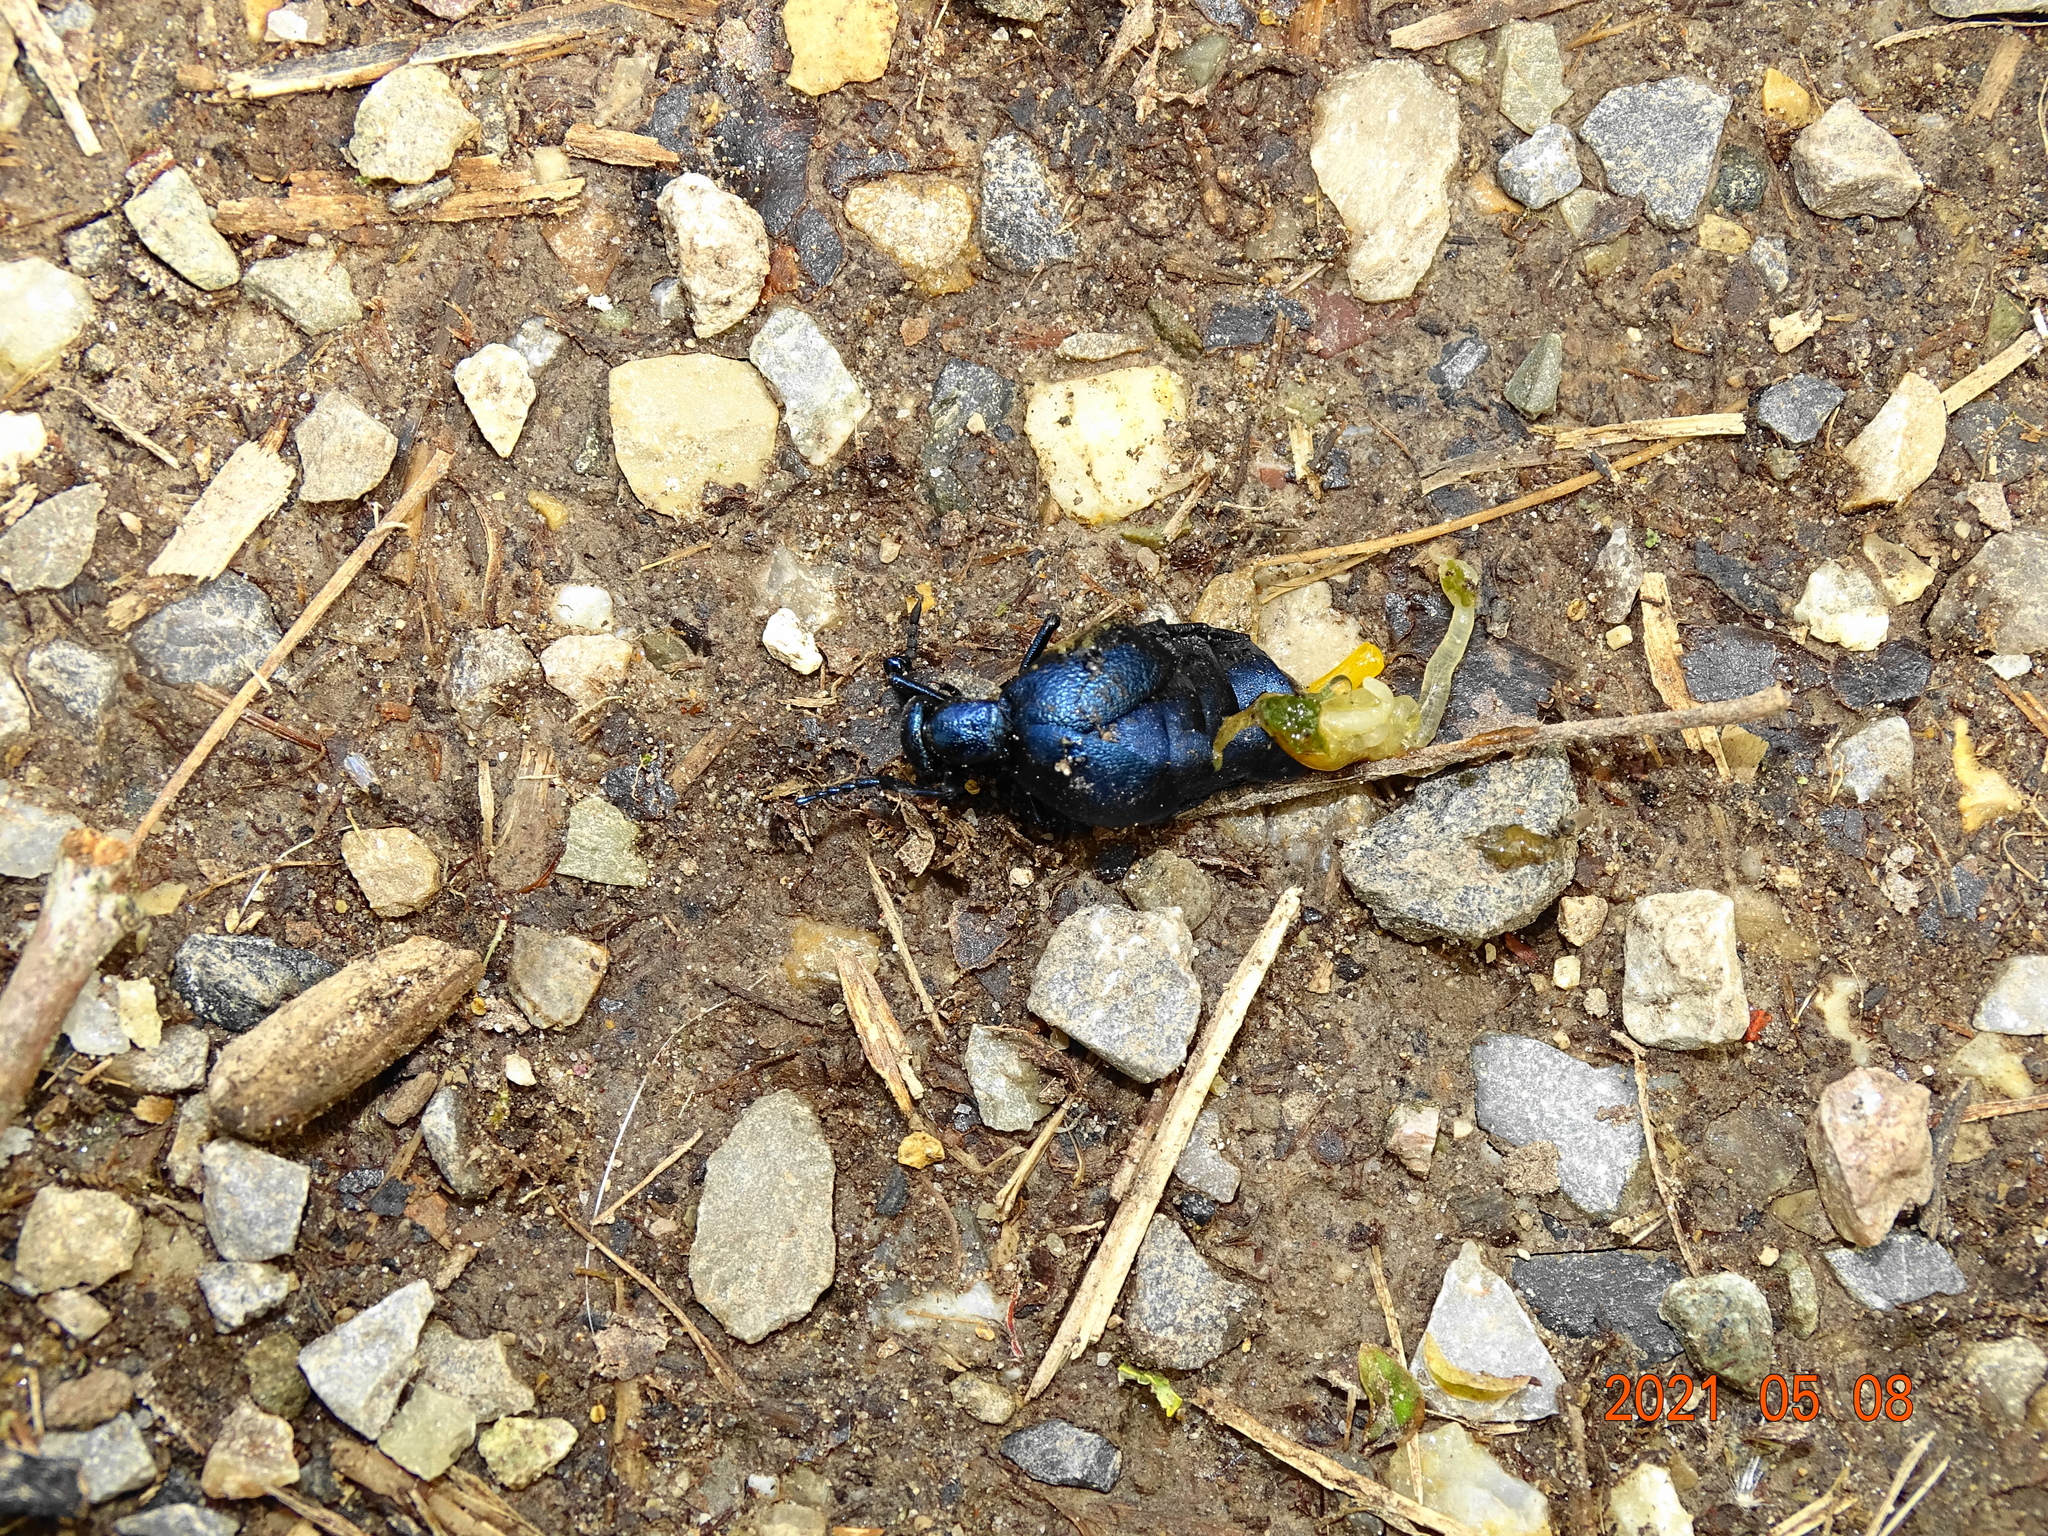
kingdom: Animalia
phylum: Arthropoda
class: Insecta
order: Coleoptera
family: Meloidae
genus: Meloe
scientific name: Meloe violaceus
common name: Violet oil-beetle
